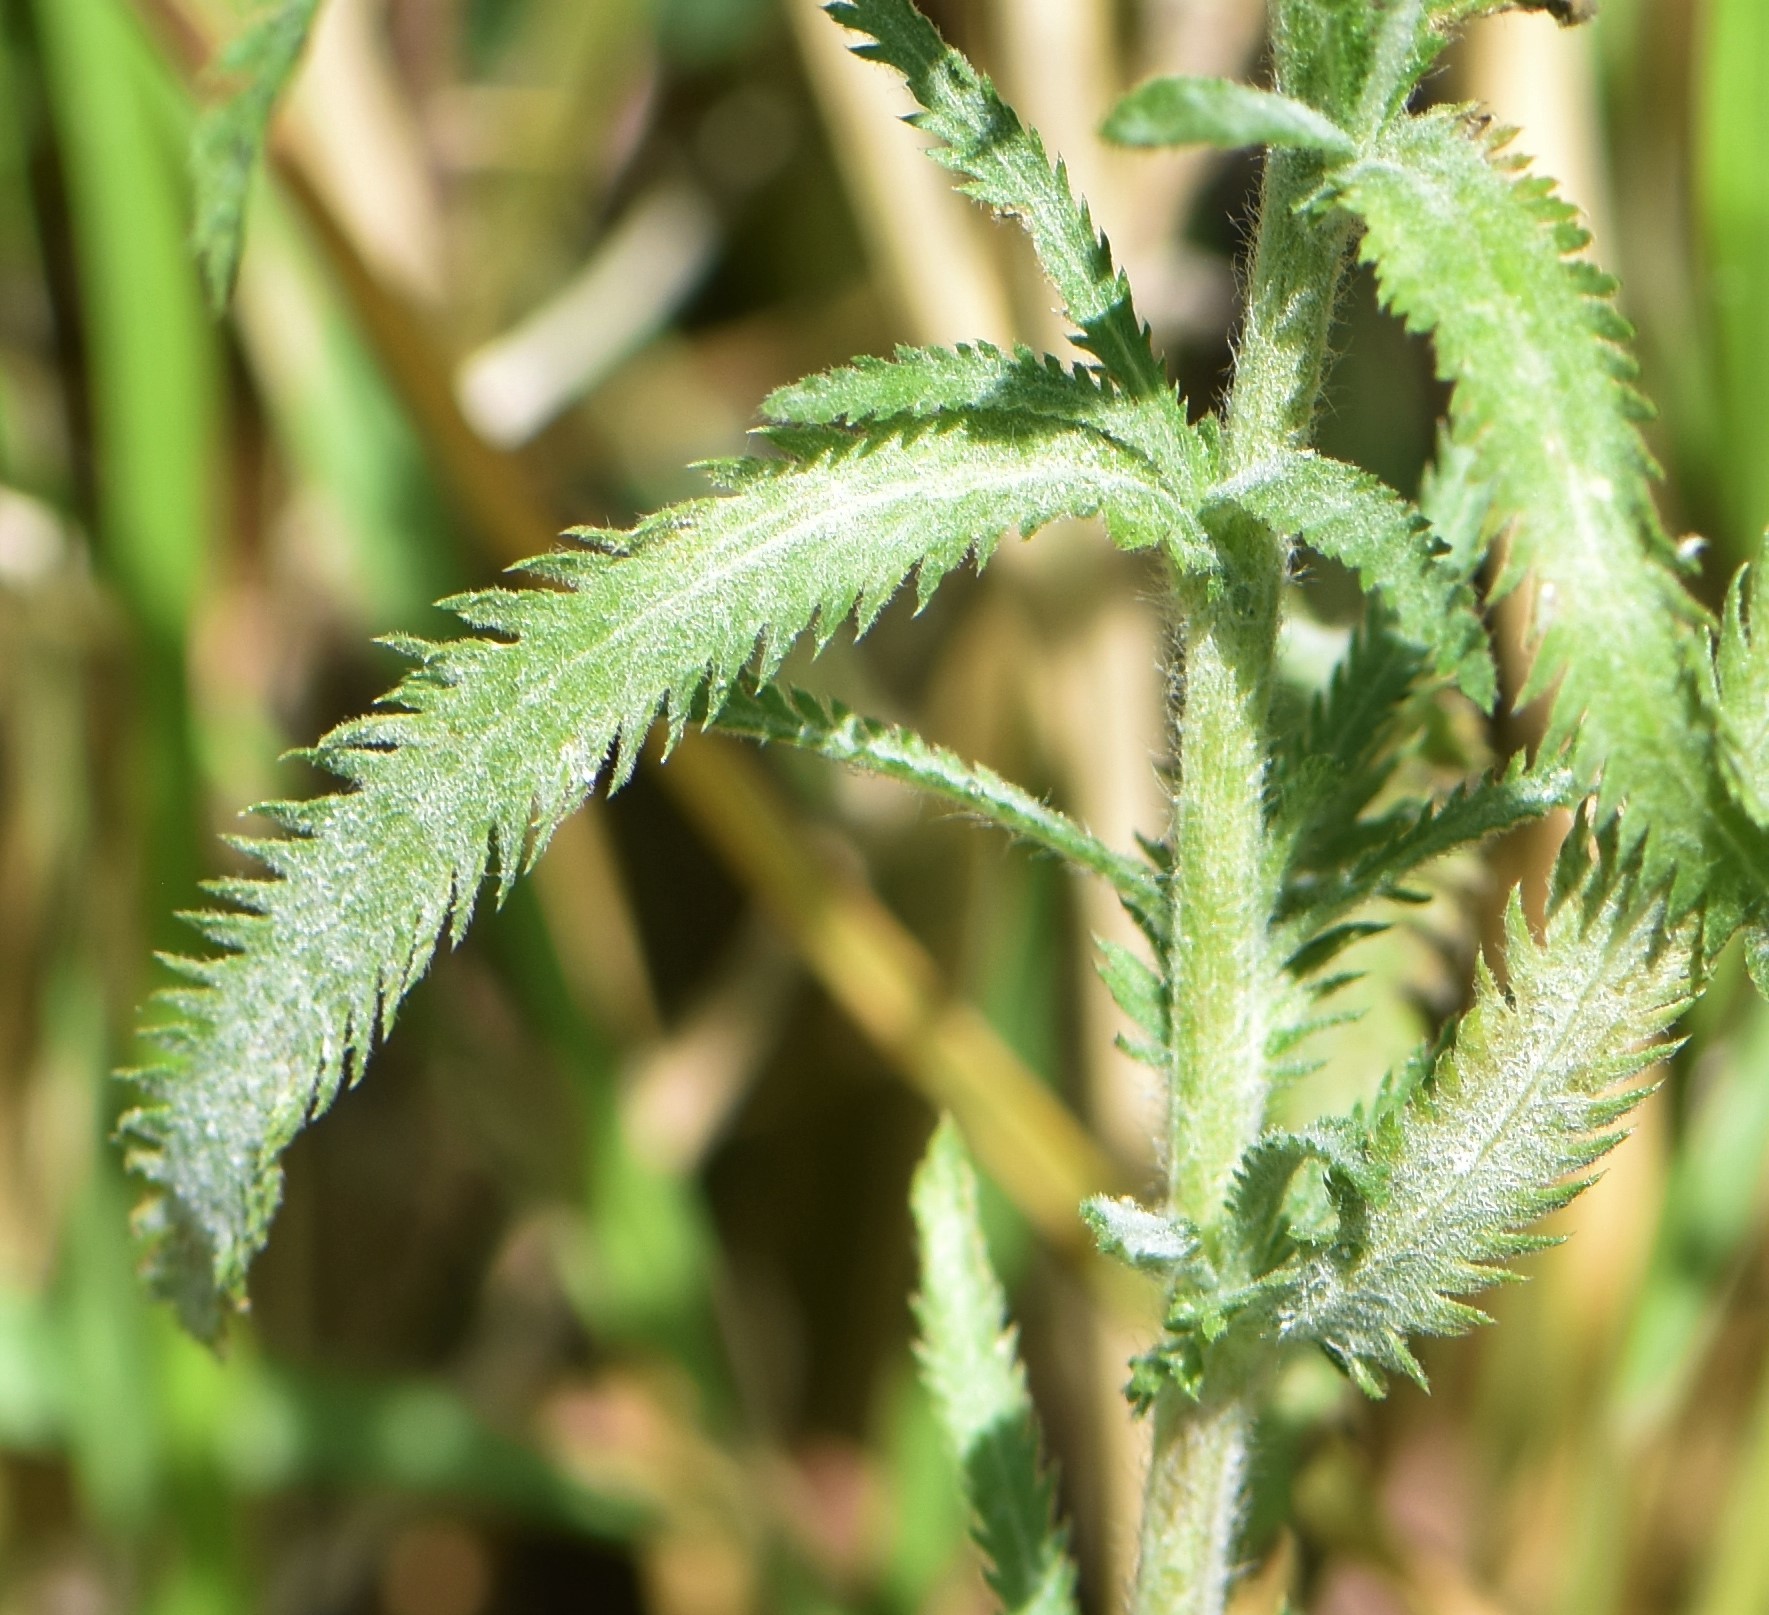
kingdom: Plantae
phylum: Tracheophyta
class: Magnoliopsida
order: Asterales
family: Asteraceae
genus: Achillea
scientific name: Achillea alpina
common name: Siberian yarrow
